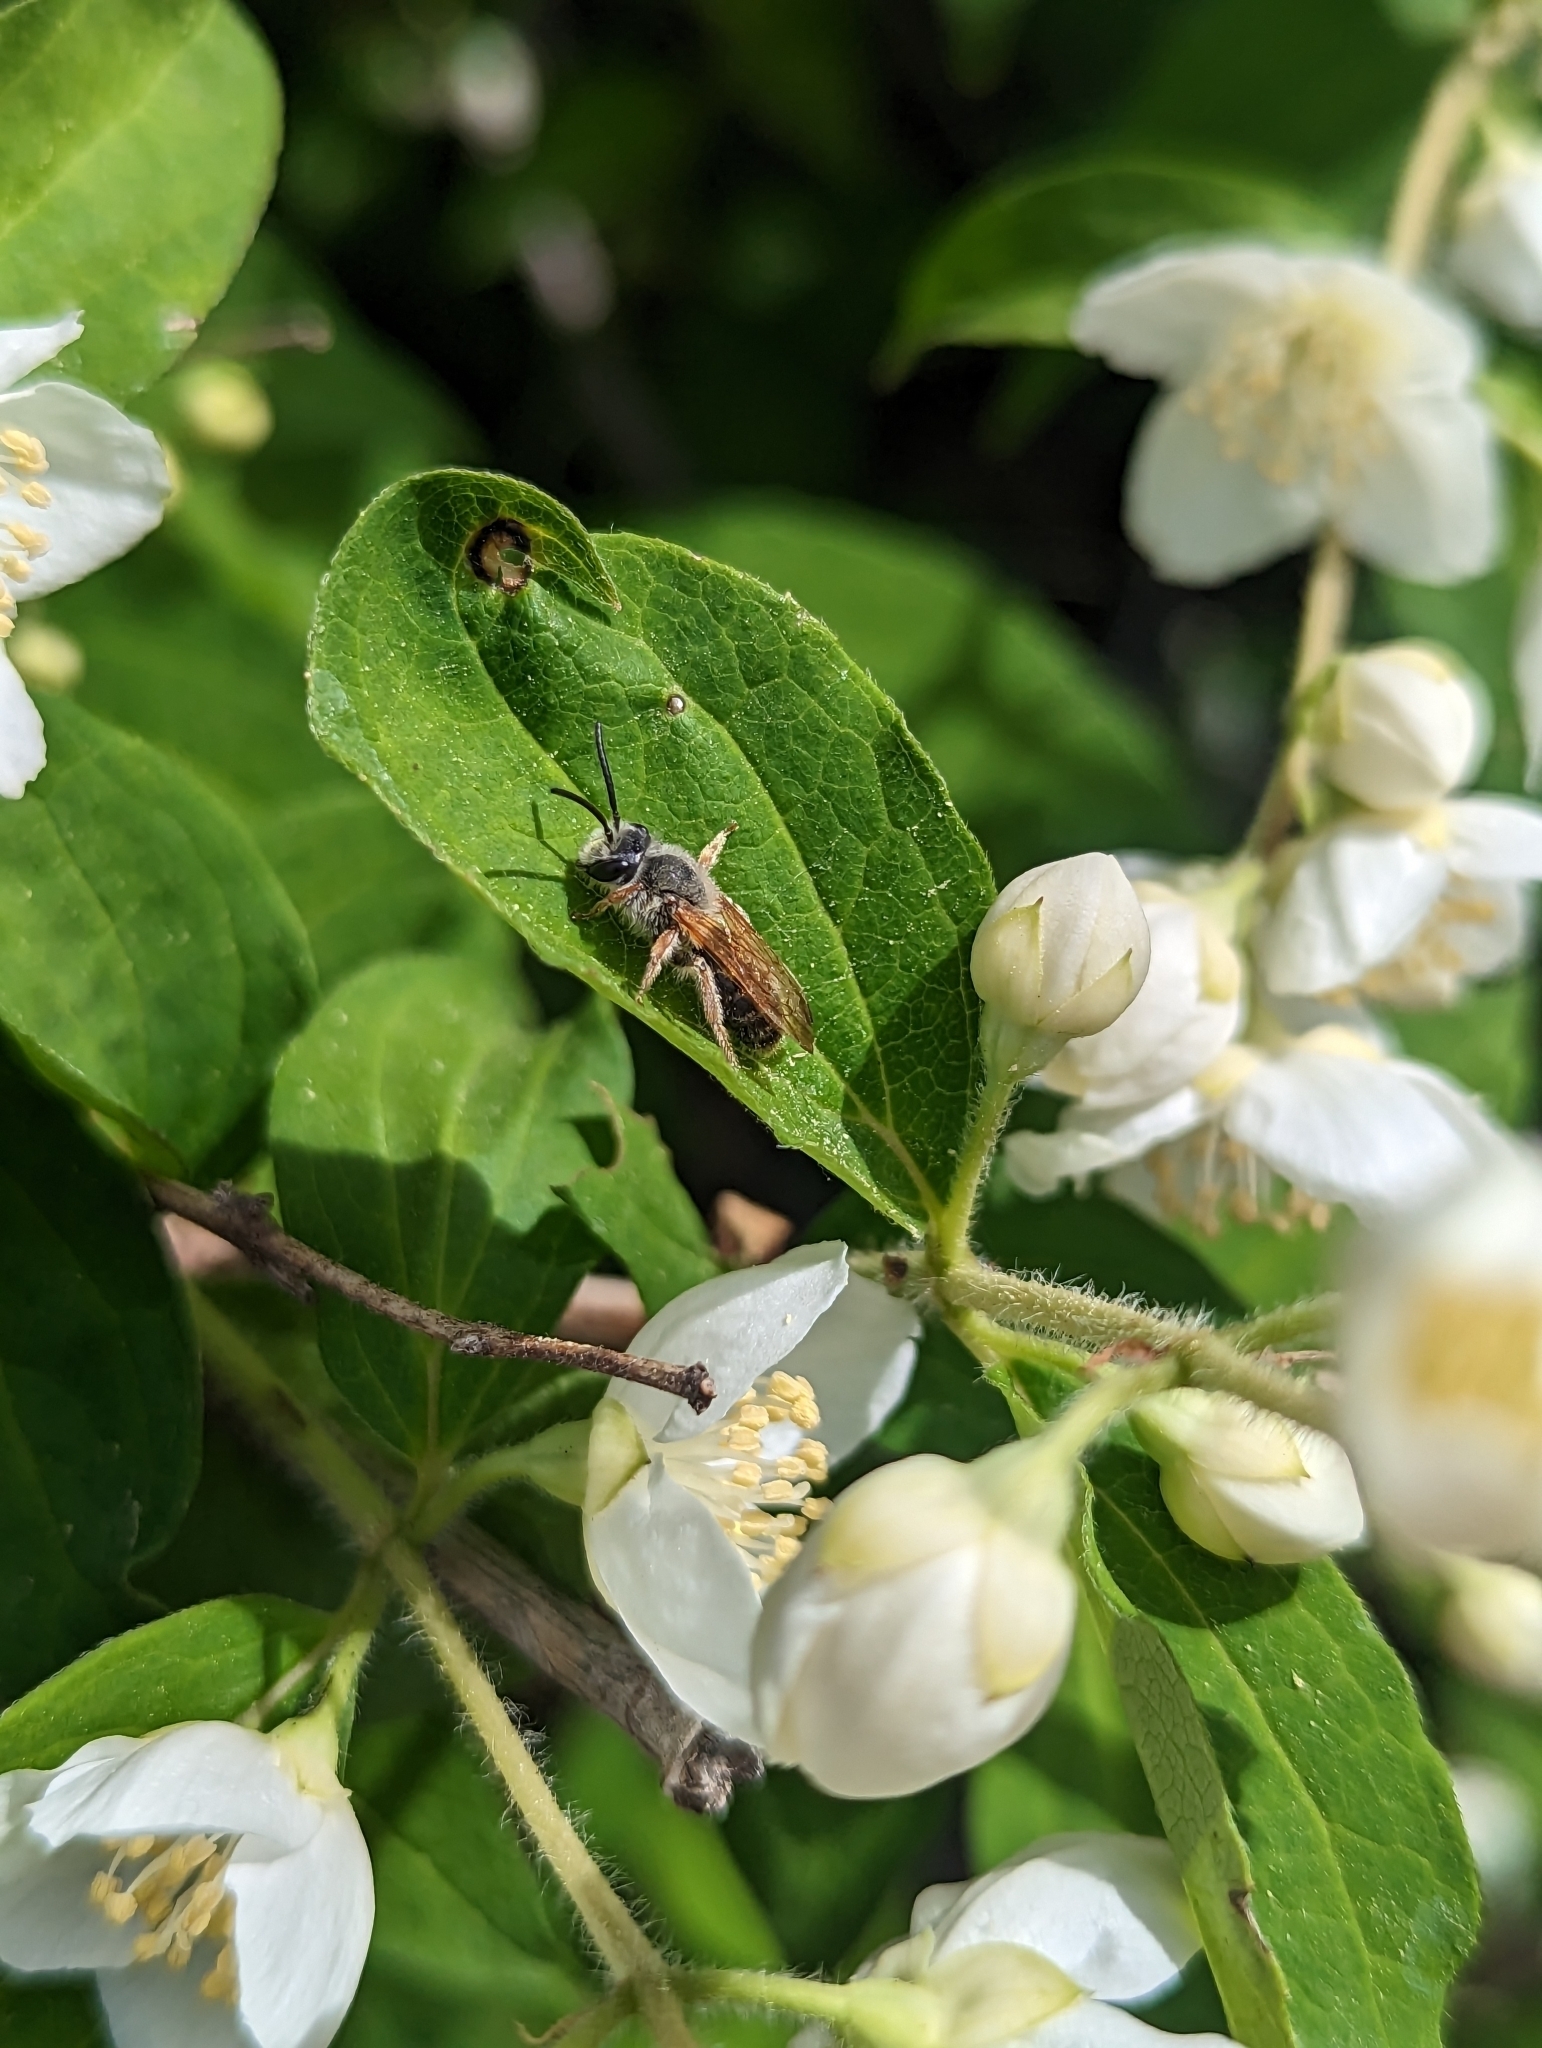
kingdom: Animalia
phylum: Arthropoda
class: Insecta
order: Hymenoptera
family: Andrenidae
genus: Andrena
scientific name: Andrena prunorum
